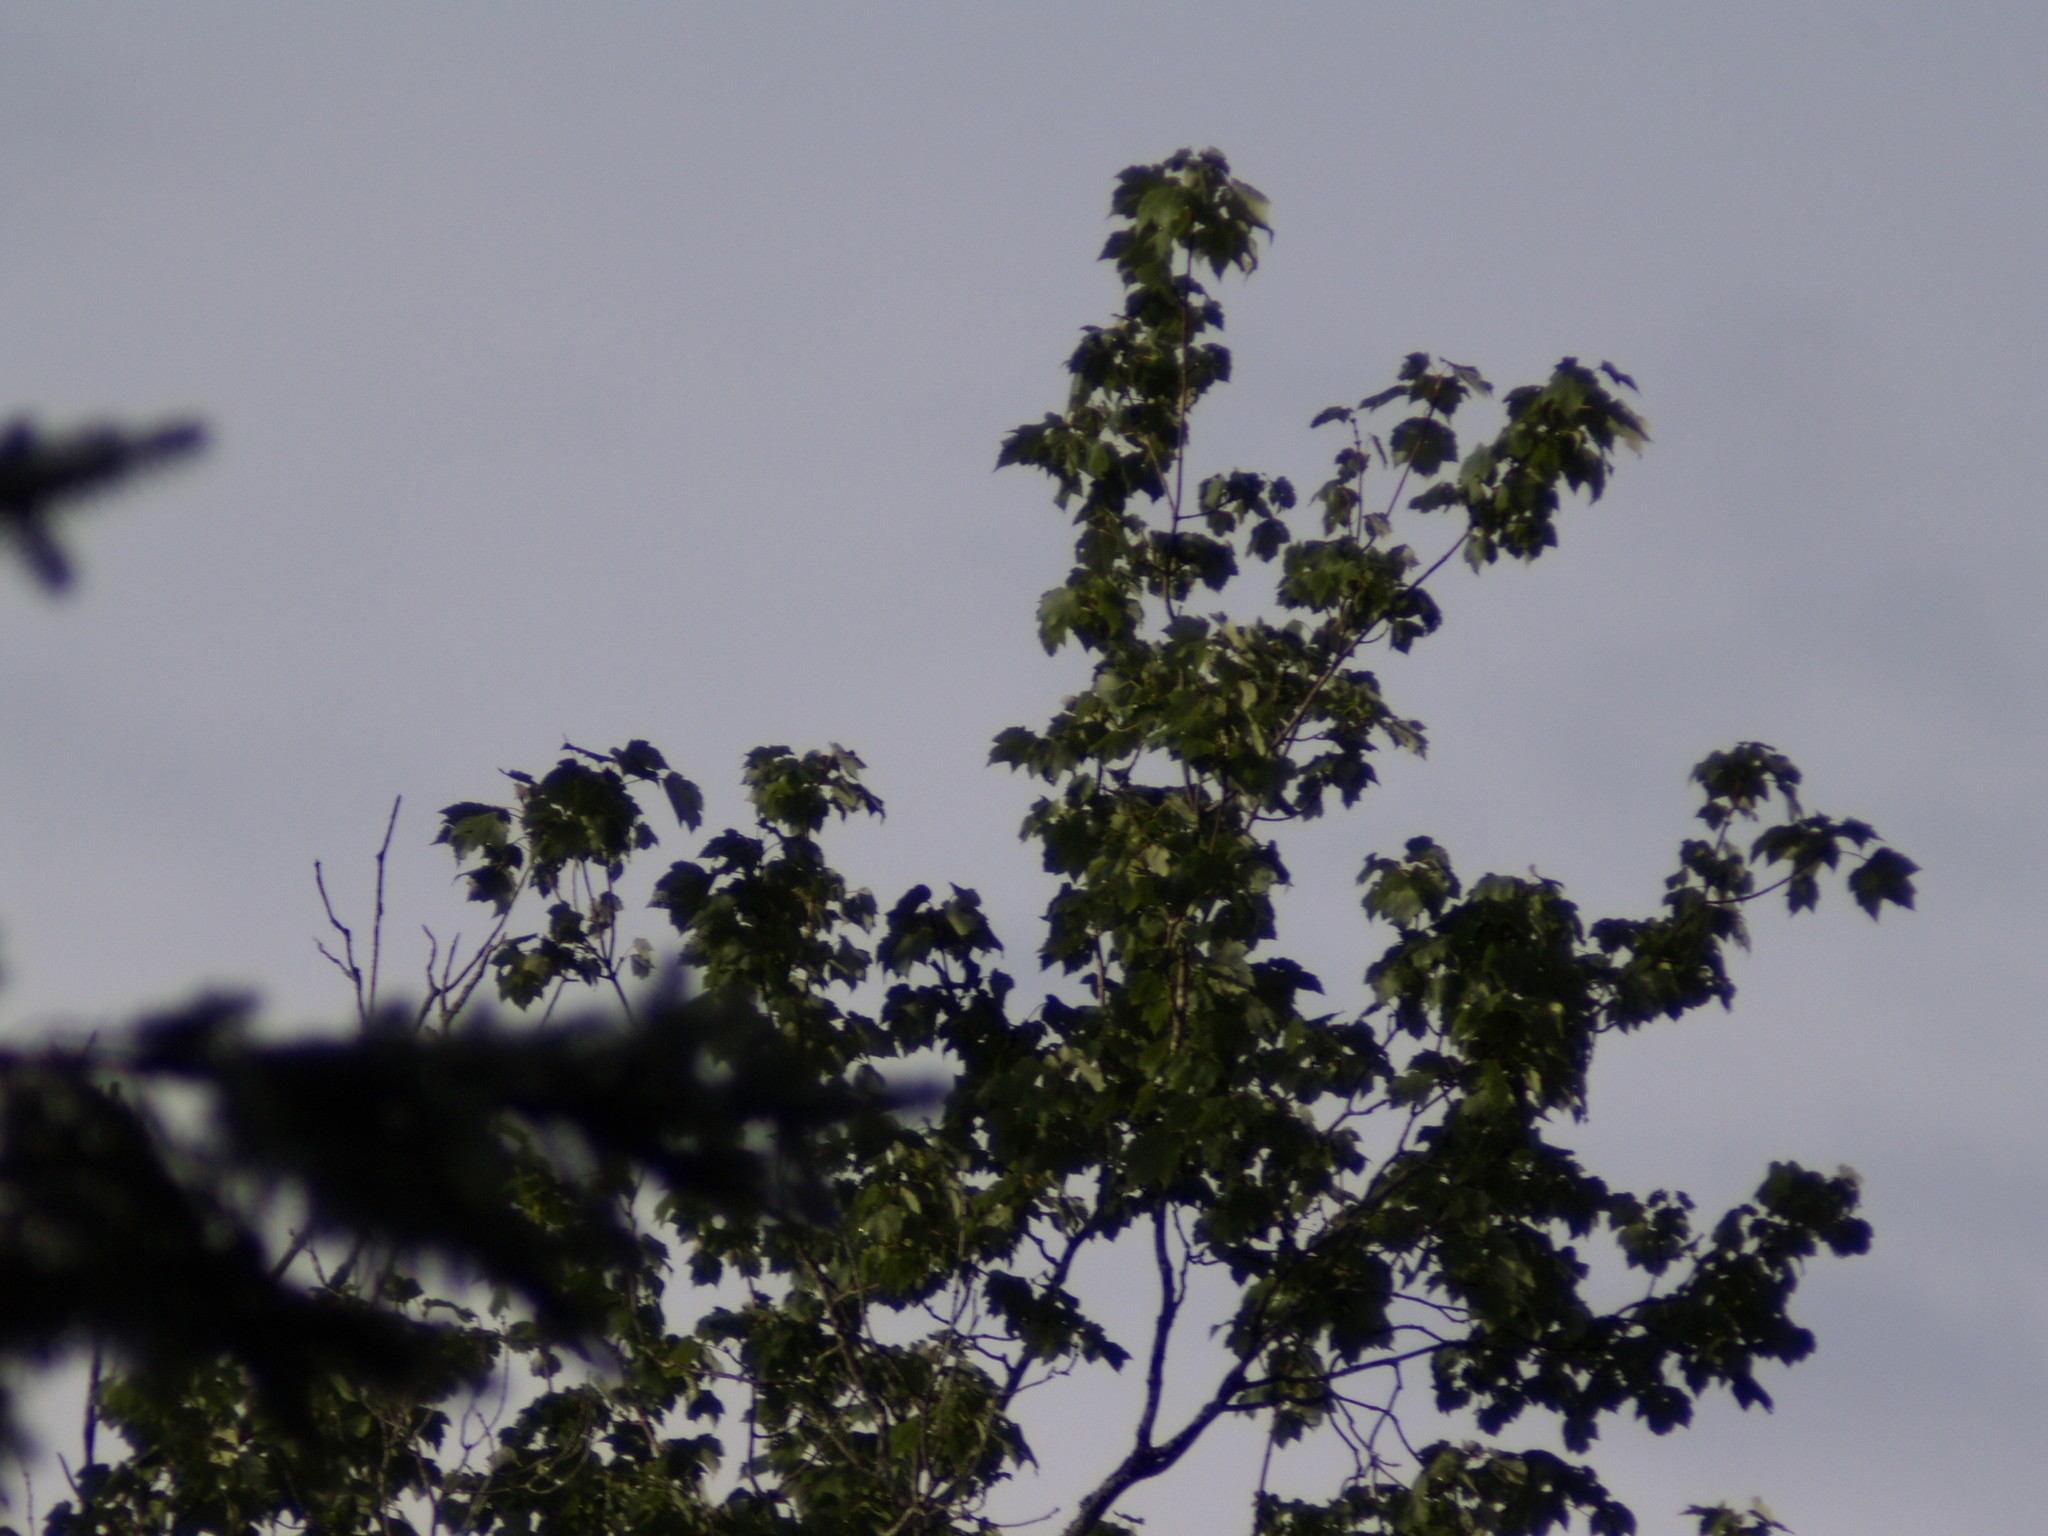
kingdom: Plantae
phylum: Tracheophyta
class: Magnoliopsida
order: Sapindales
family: Sapindaceae
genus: Acer
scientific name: Acer rubrum
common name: Red maple
